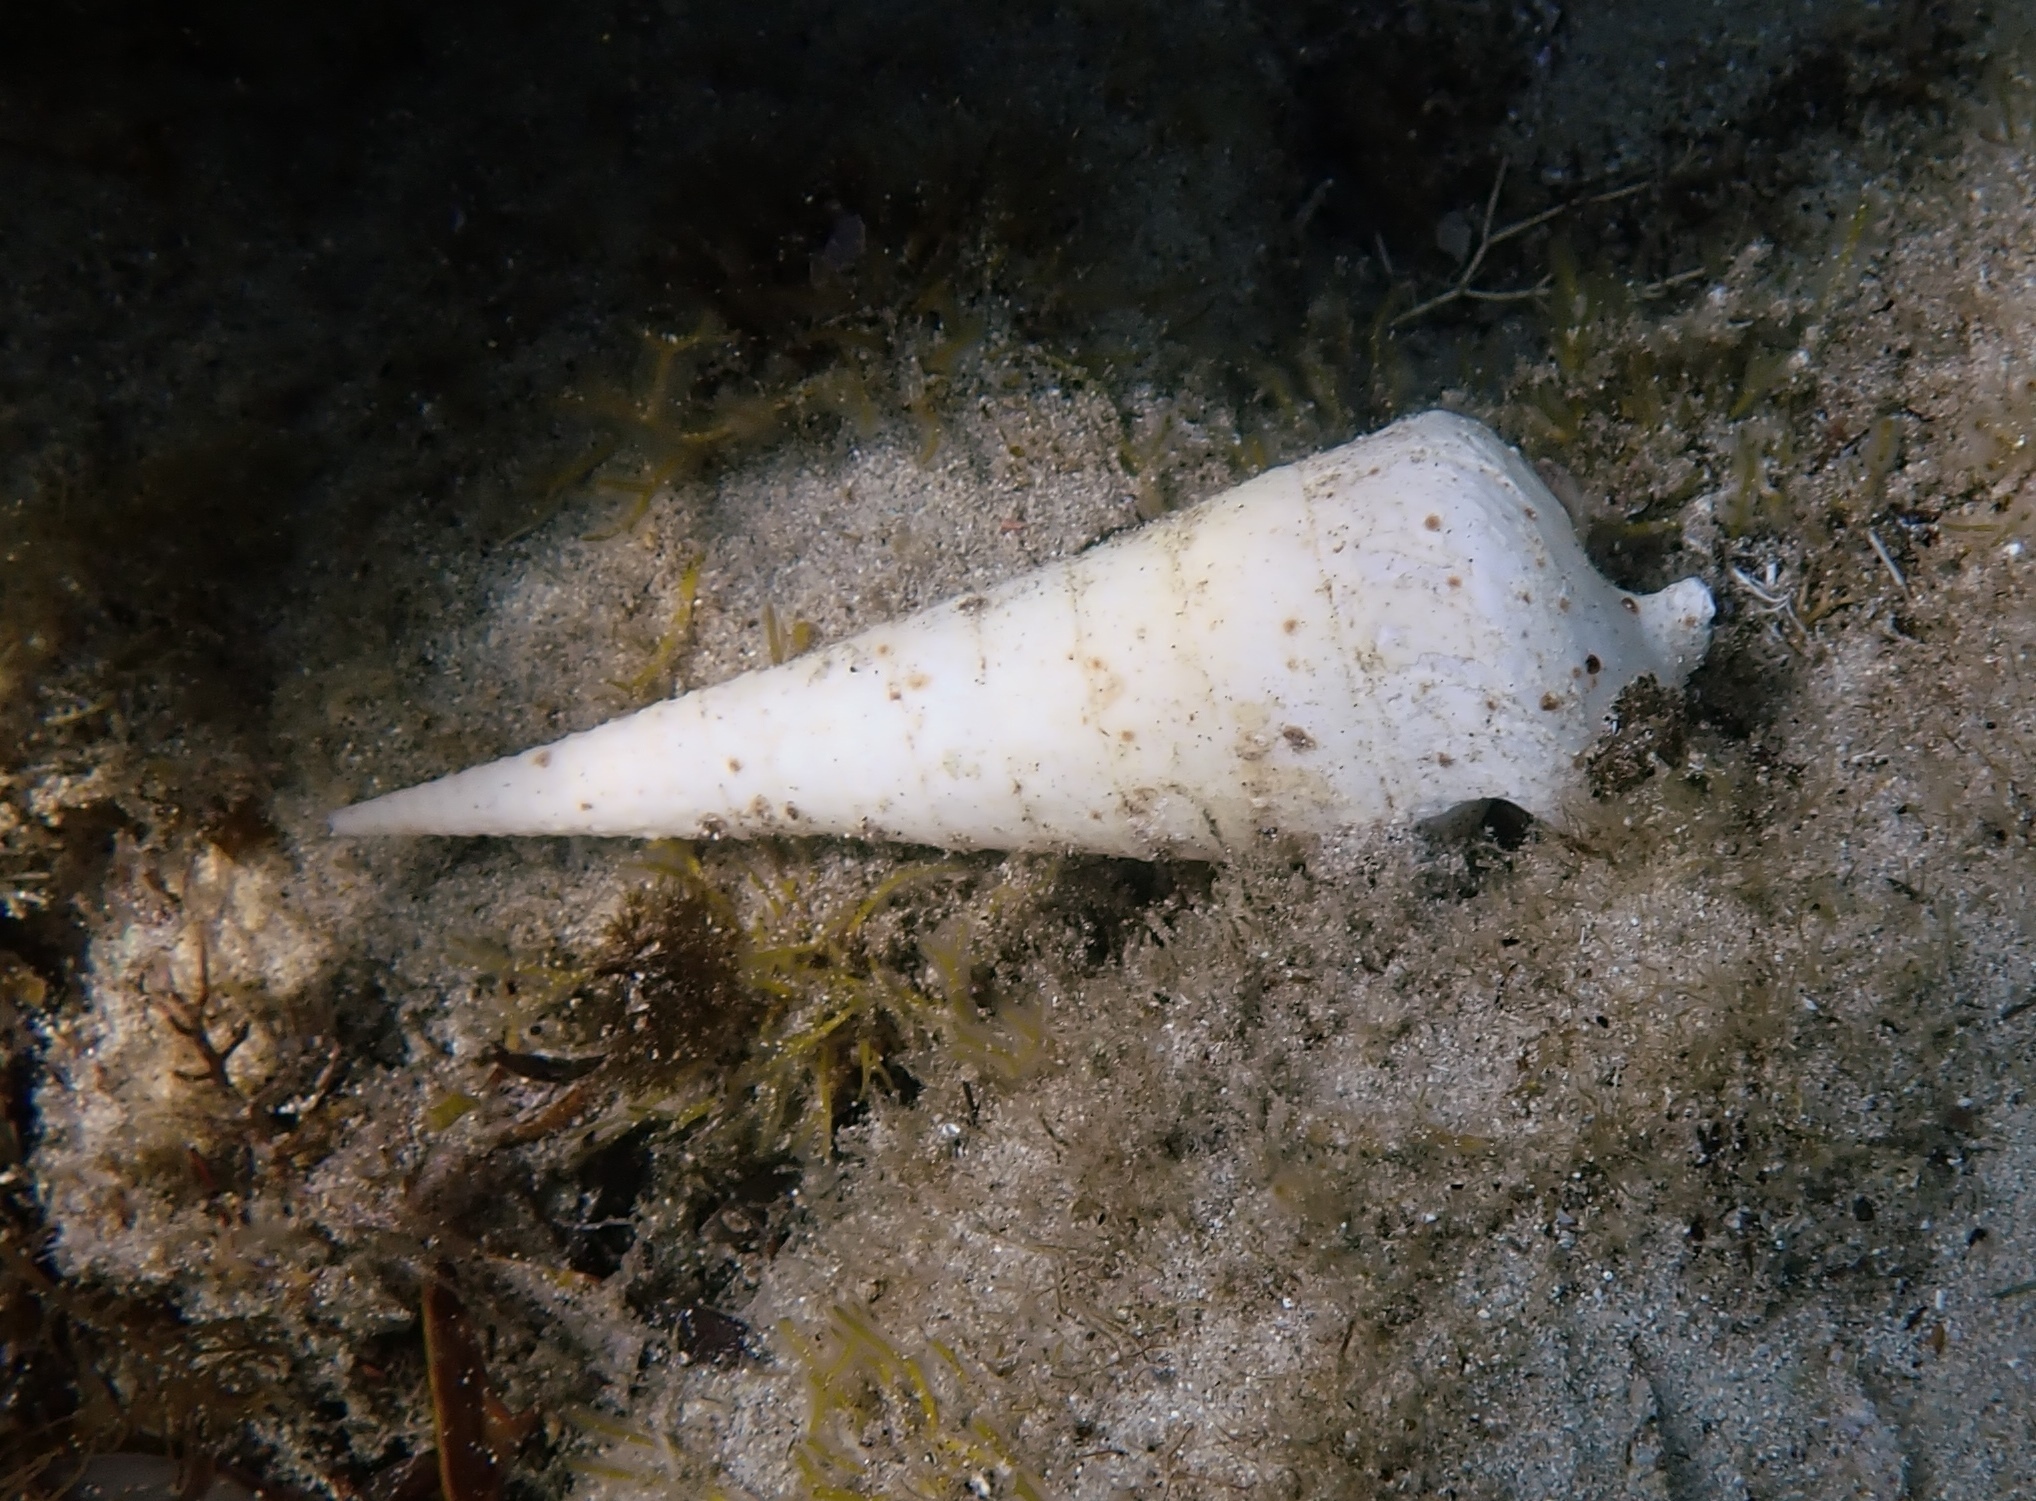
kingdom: Animalia
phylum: Mollusca
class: Gastropoda
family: Campanilidae
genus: Campanile
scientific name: Campanile symbolicum
